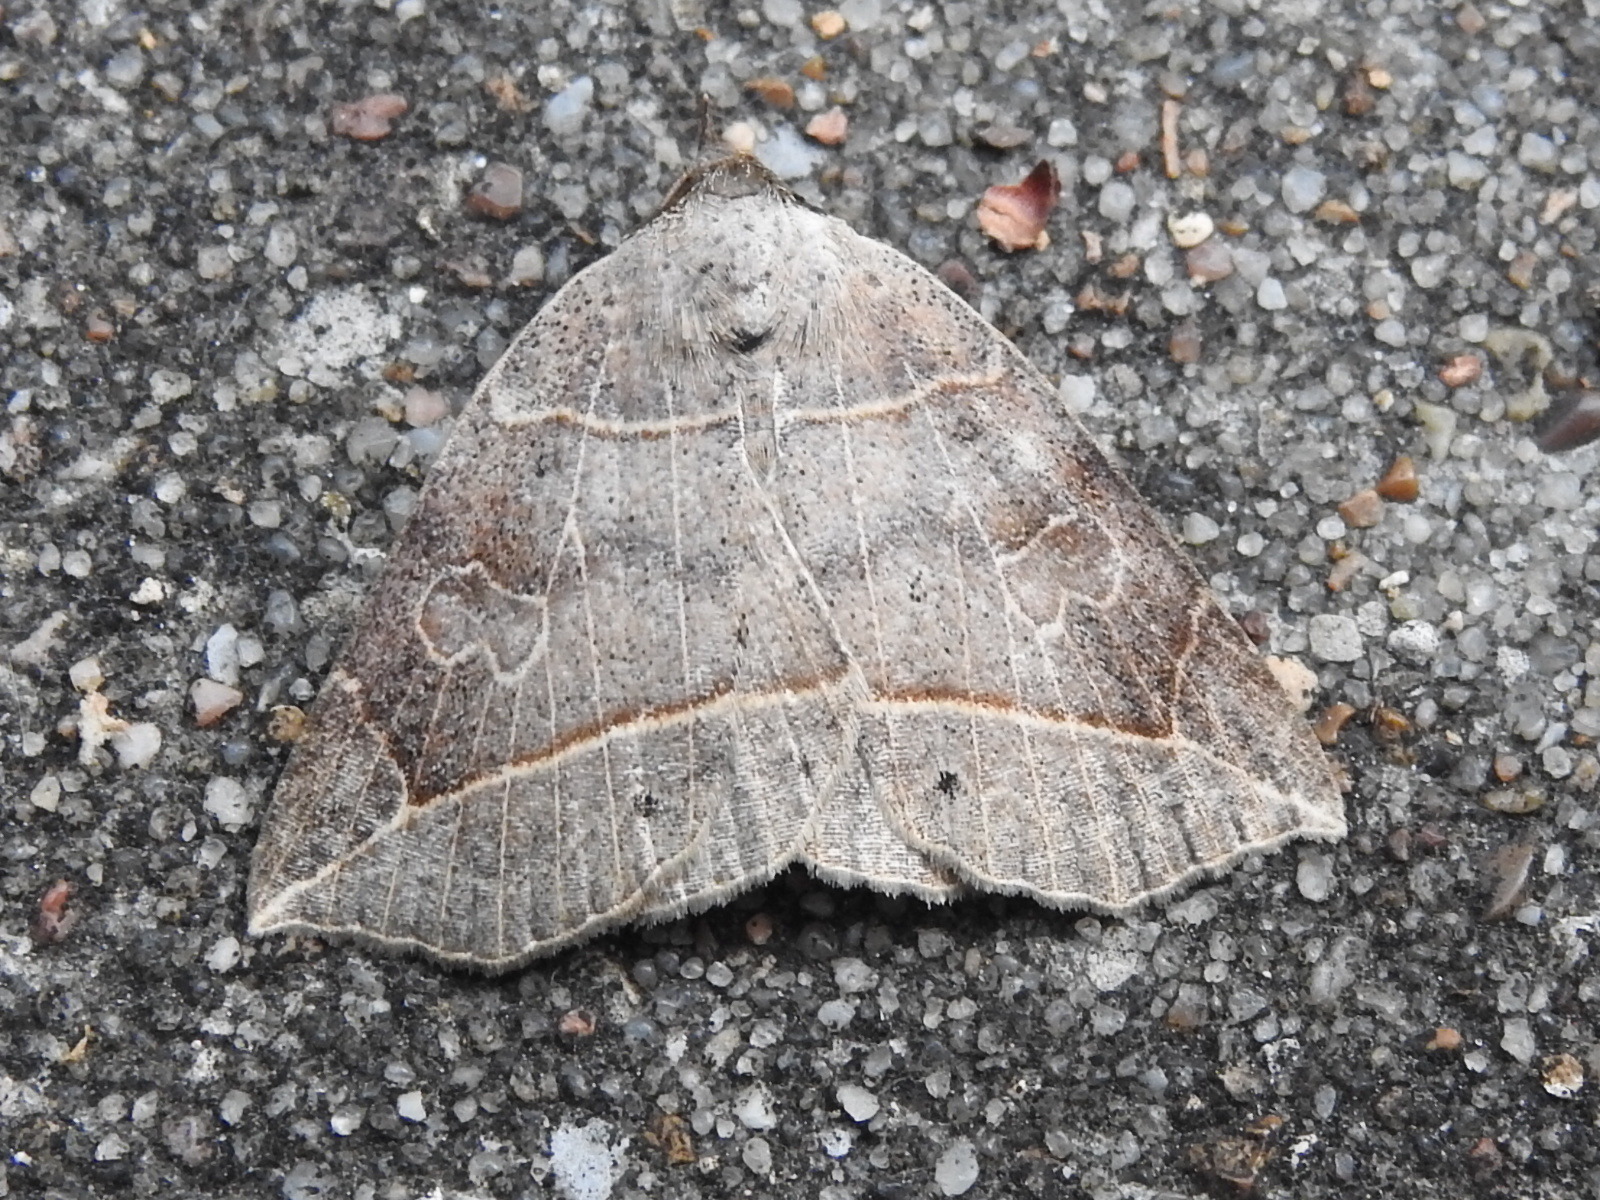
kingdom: Animalia
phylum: Arthropoda
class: Insecta
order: Lepidoptera
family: Erebidae
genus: Isogona
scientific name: Isogona tenuis
